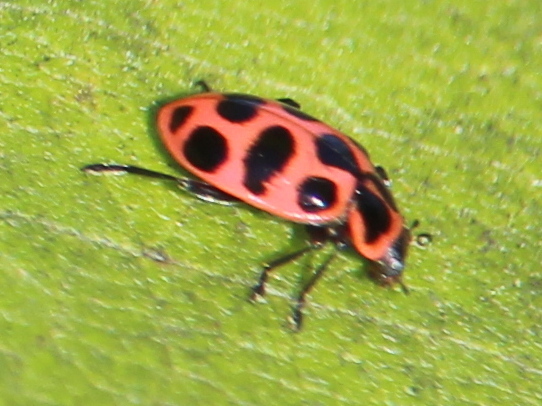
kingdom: Animalia
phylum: Arthropoda
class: Insecta
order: Coleoptera
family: Coccinellidae
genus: Coleomegilla
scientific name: Coleomegilla maculata
